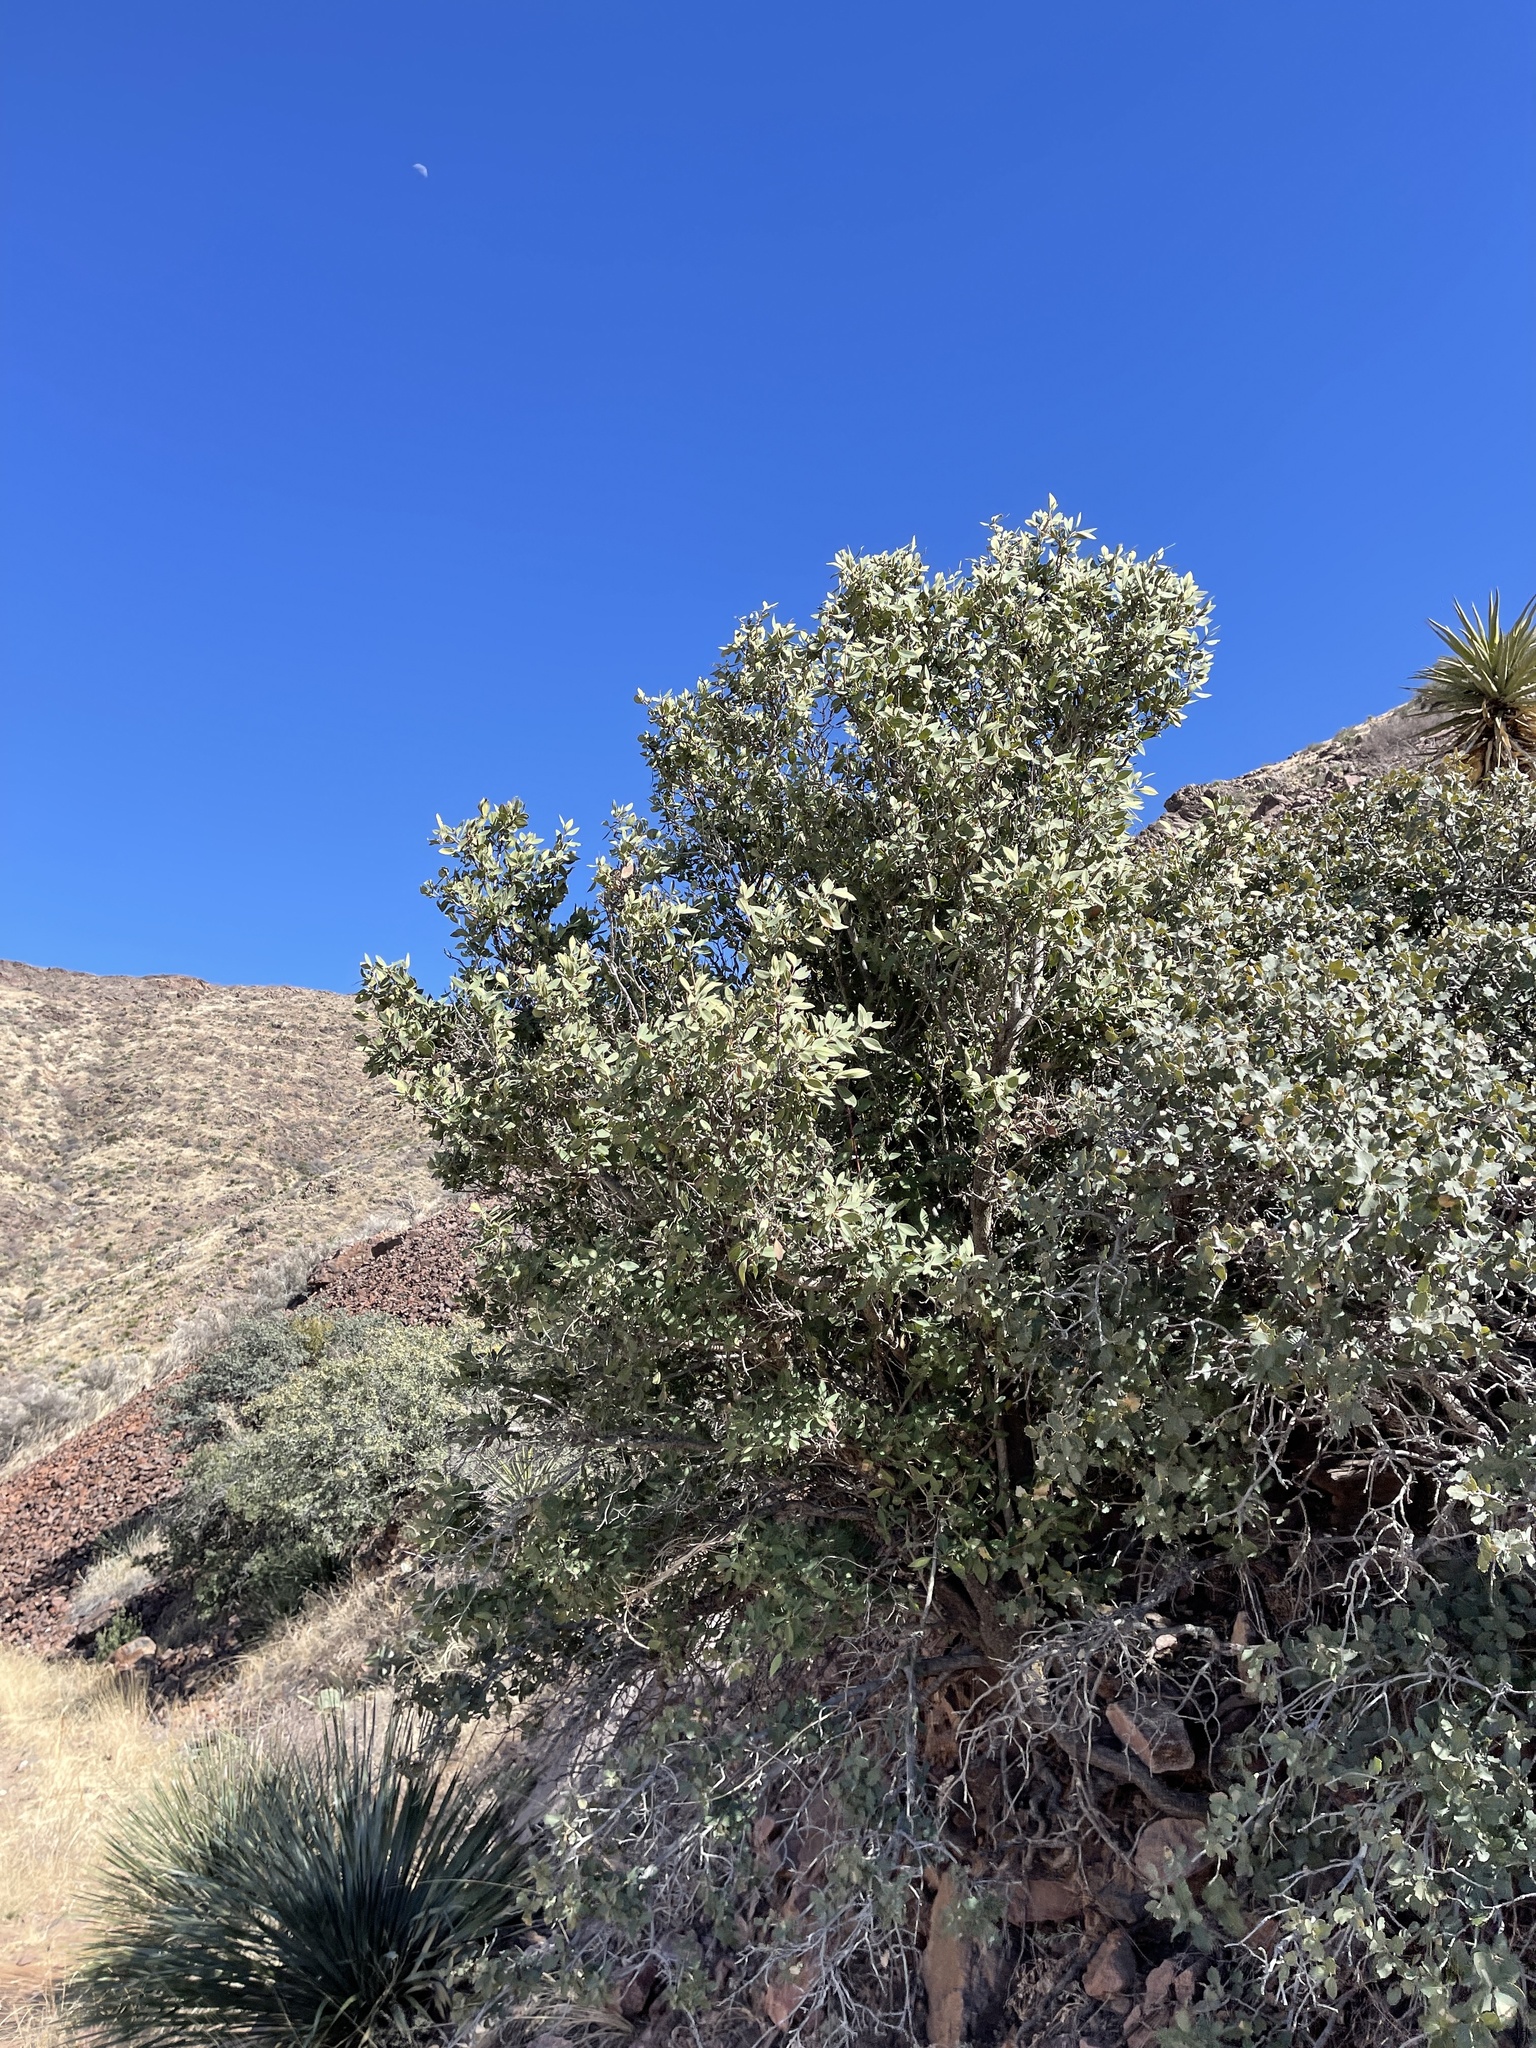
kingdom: Plantae
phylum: Tracheophyta
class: Magnoliopsida
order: Garryales
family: Garryaceae
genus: Garrya
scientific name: Garrya wrightii
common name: Wright's silktassel
